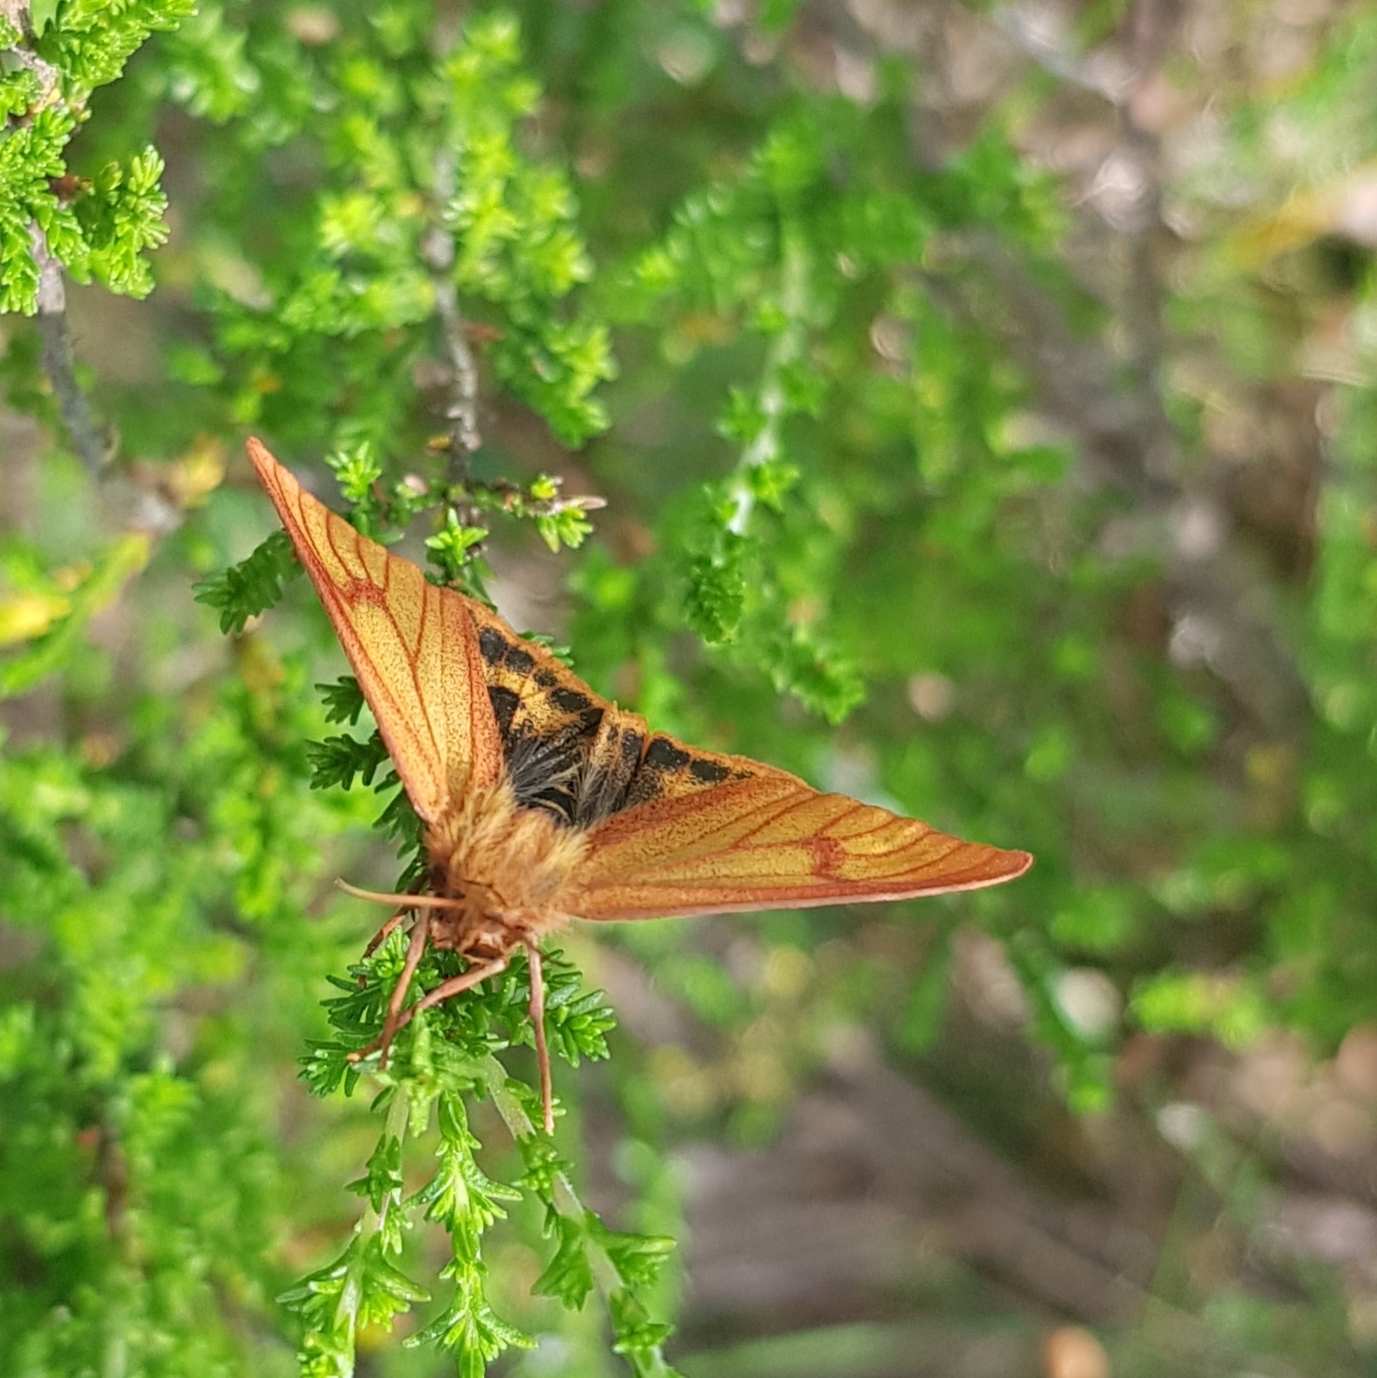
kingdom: Animalia
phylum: Arthropoda
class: Insecta
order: Lepidoptera
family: Erebidae
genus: Diacrisia
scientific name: Diacrisia sannio
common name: Clouded buff
